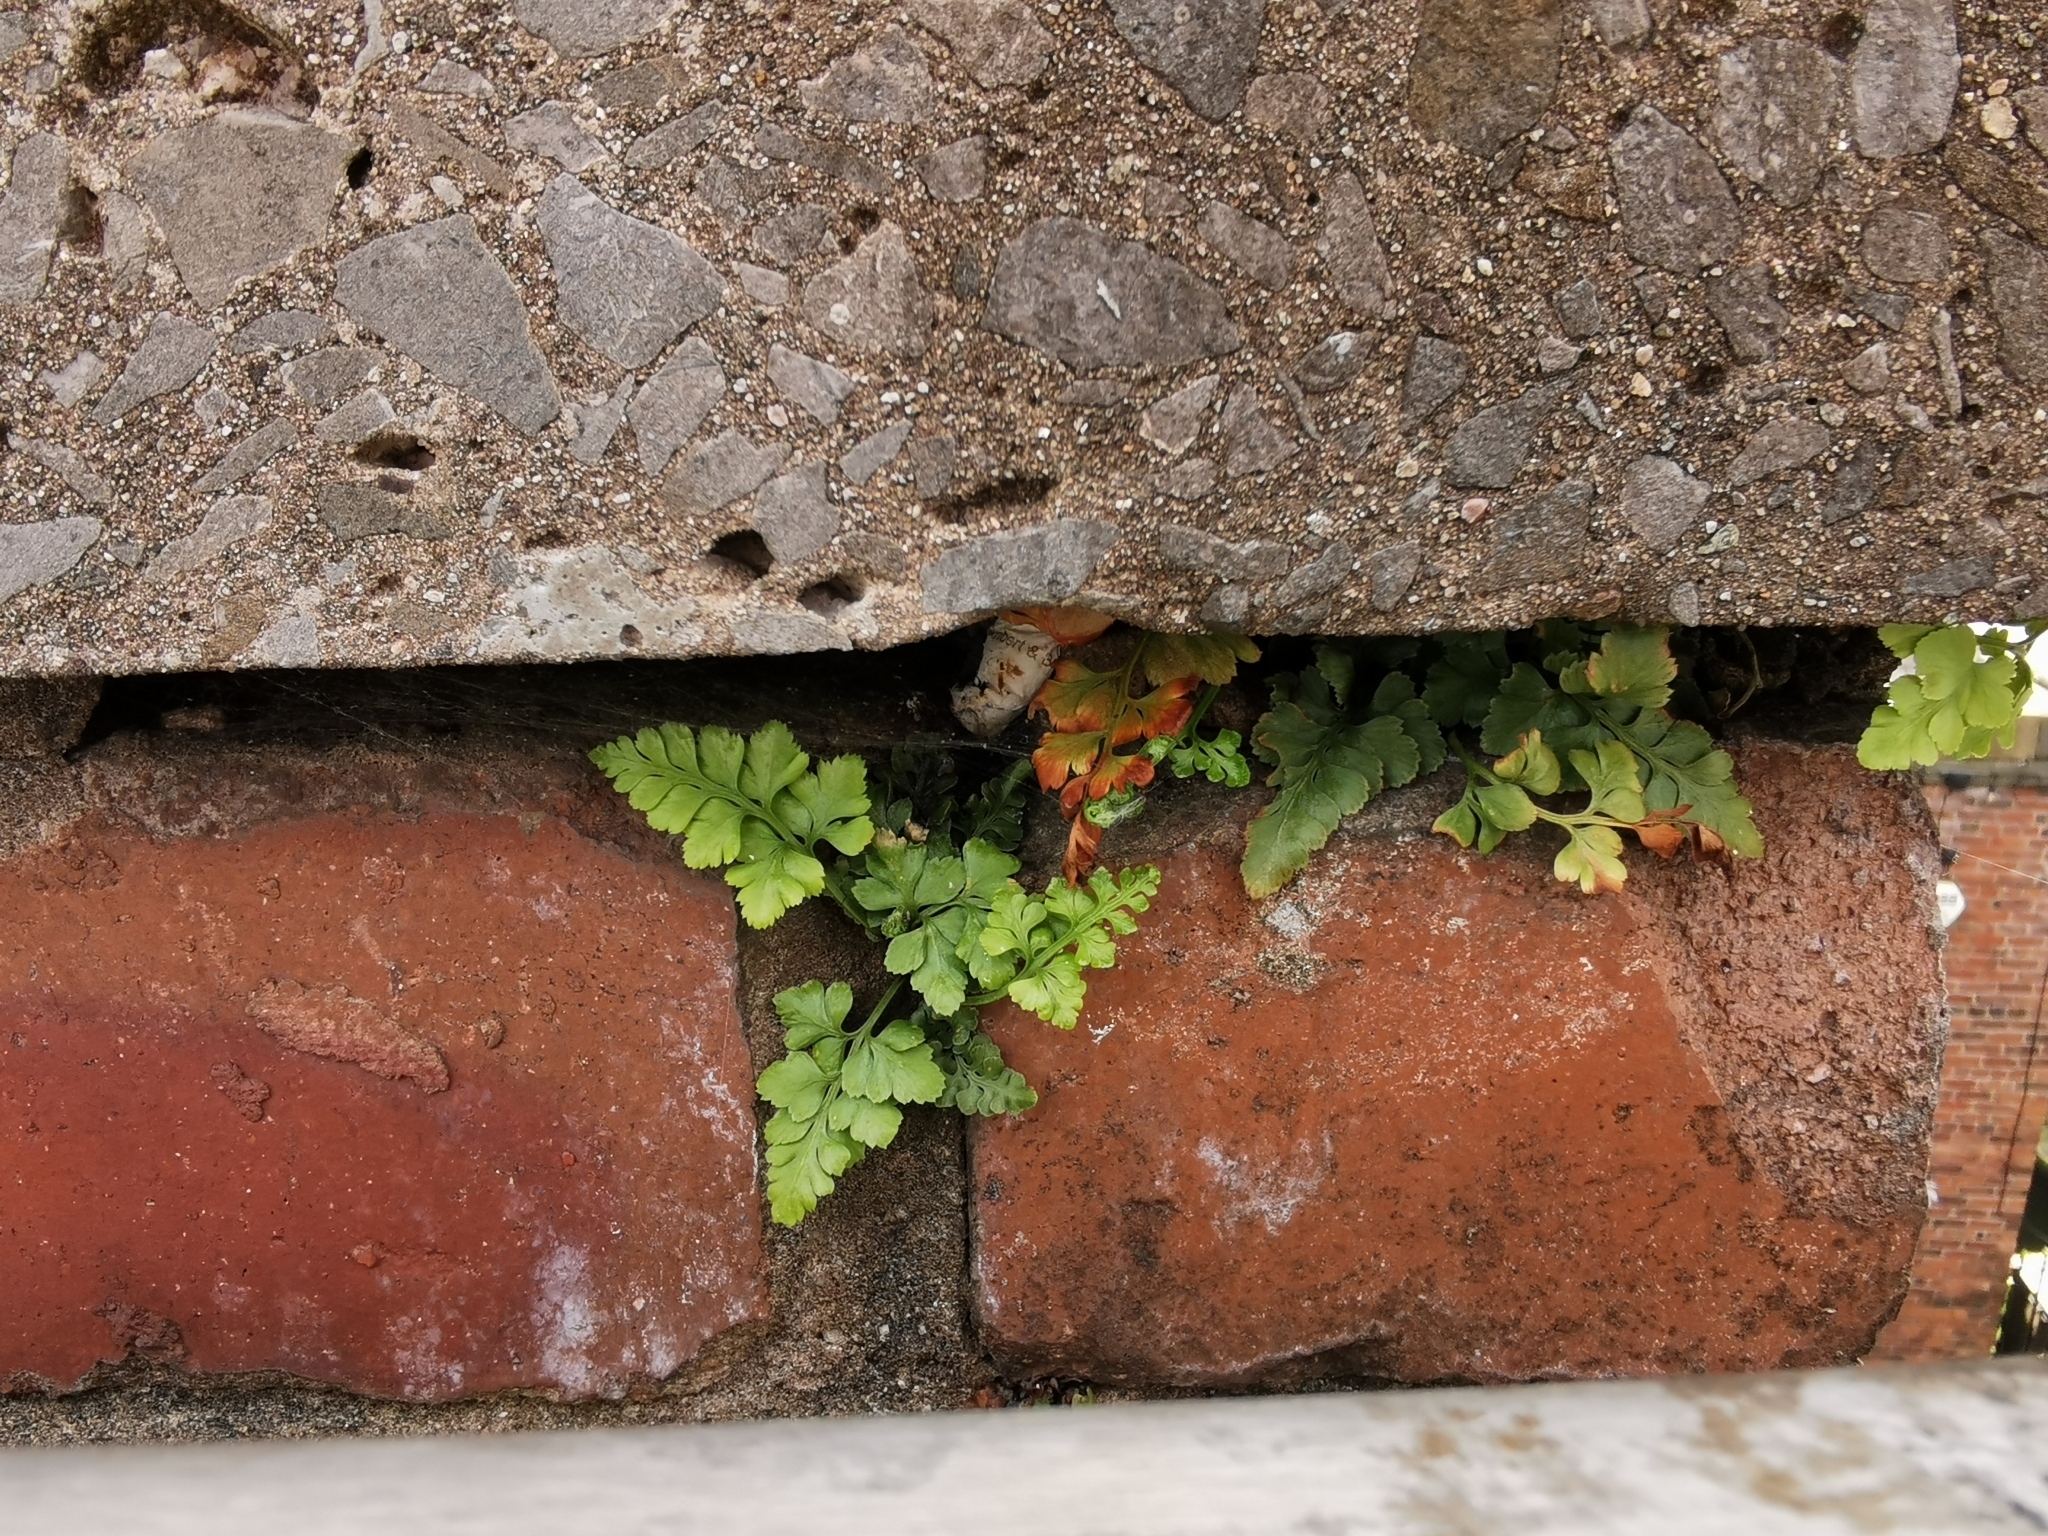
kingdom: Plantae
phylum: Tracheophyta
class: Polypodiopsida
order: Polypodiales
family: Aspleniaceae
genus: Asplenium
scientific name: Asplenium adiantum-nigrum
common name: Black spleenwort
